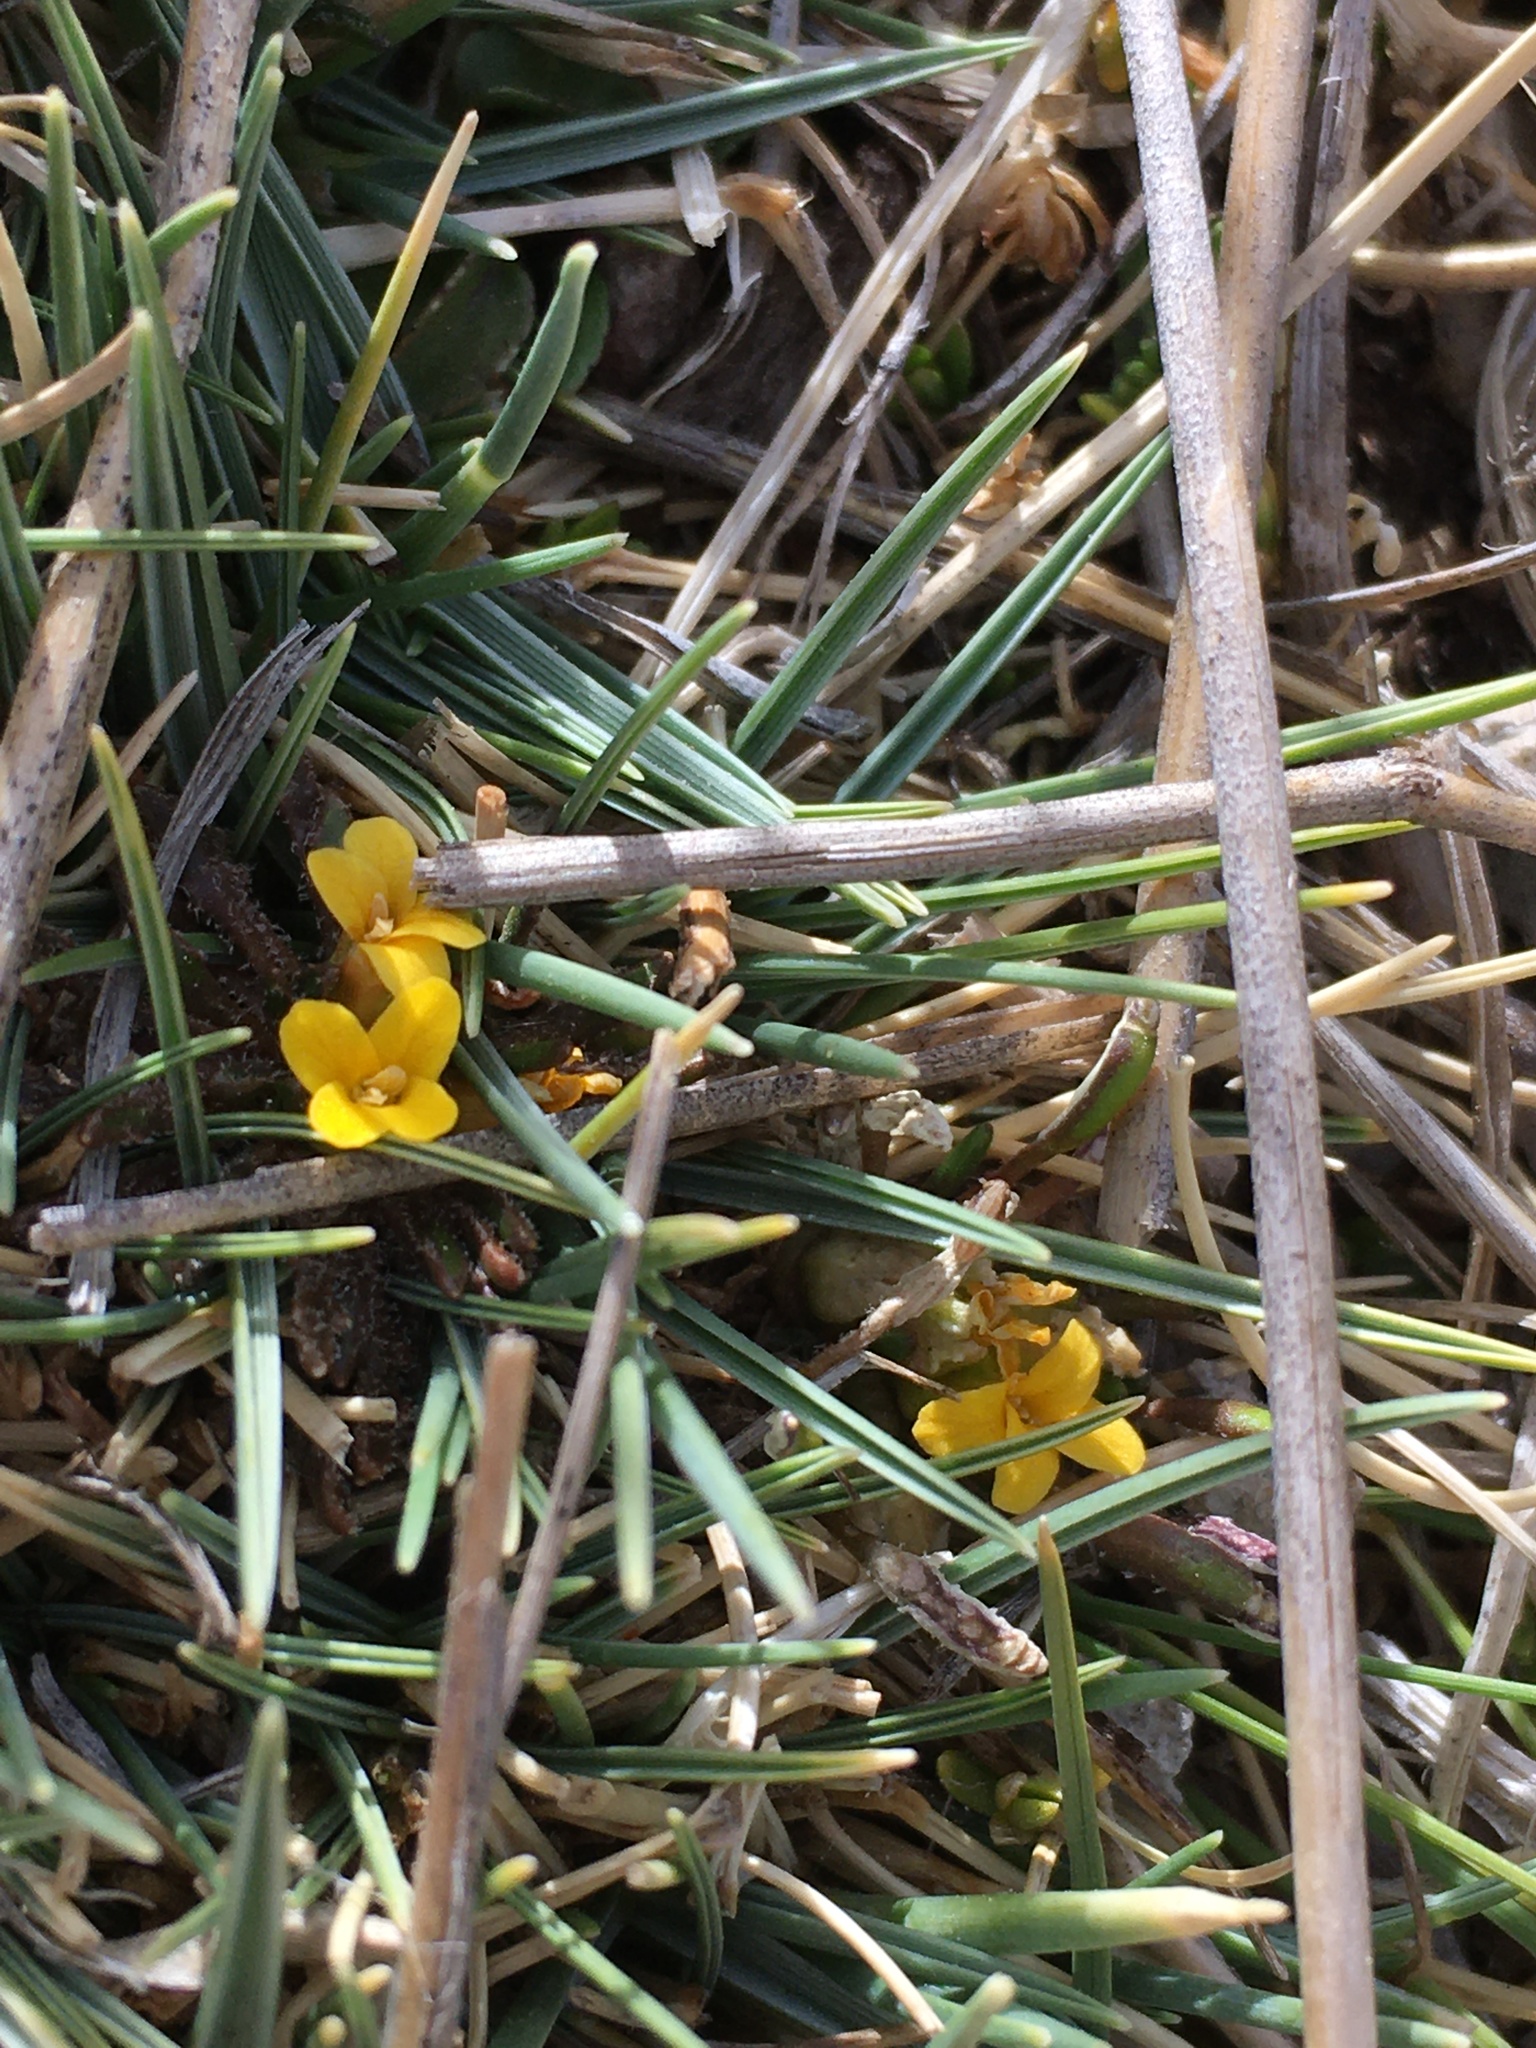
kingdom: Plantae
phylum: Tracheophyta
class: Magnoliopsida
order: Brassicales
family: Brassicaceae
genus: Petroravenia
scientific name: Petroravenia friesii
